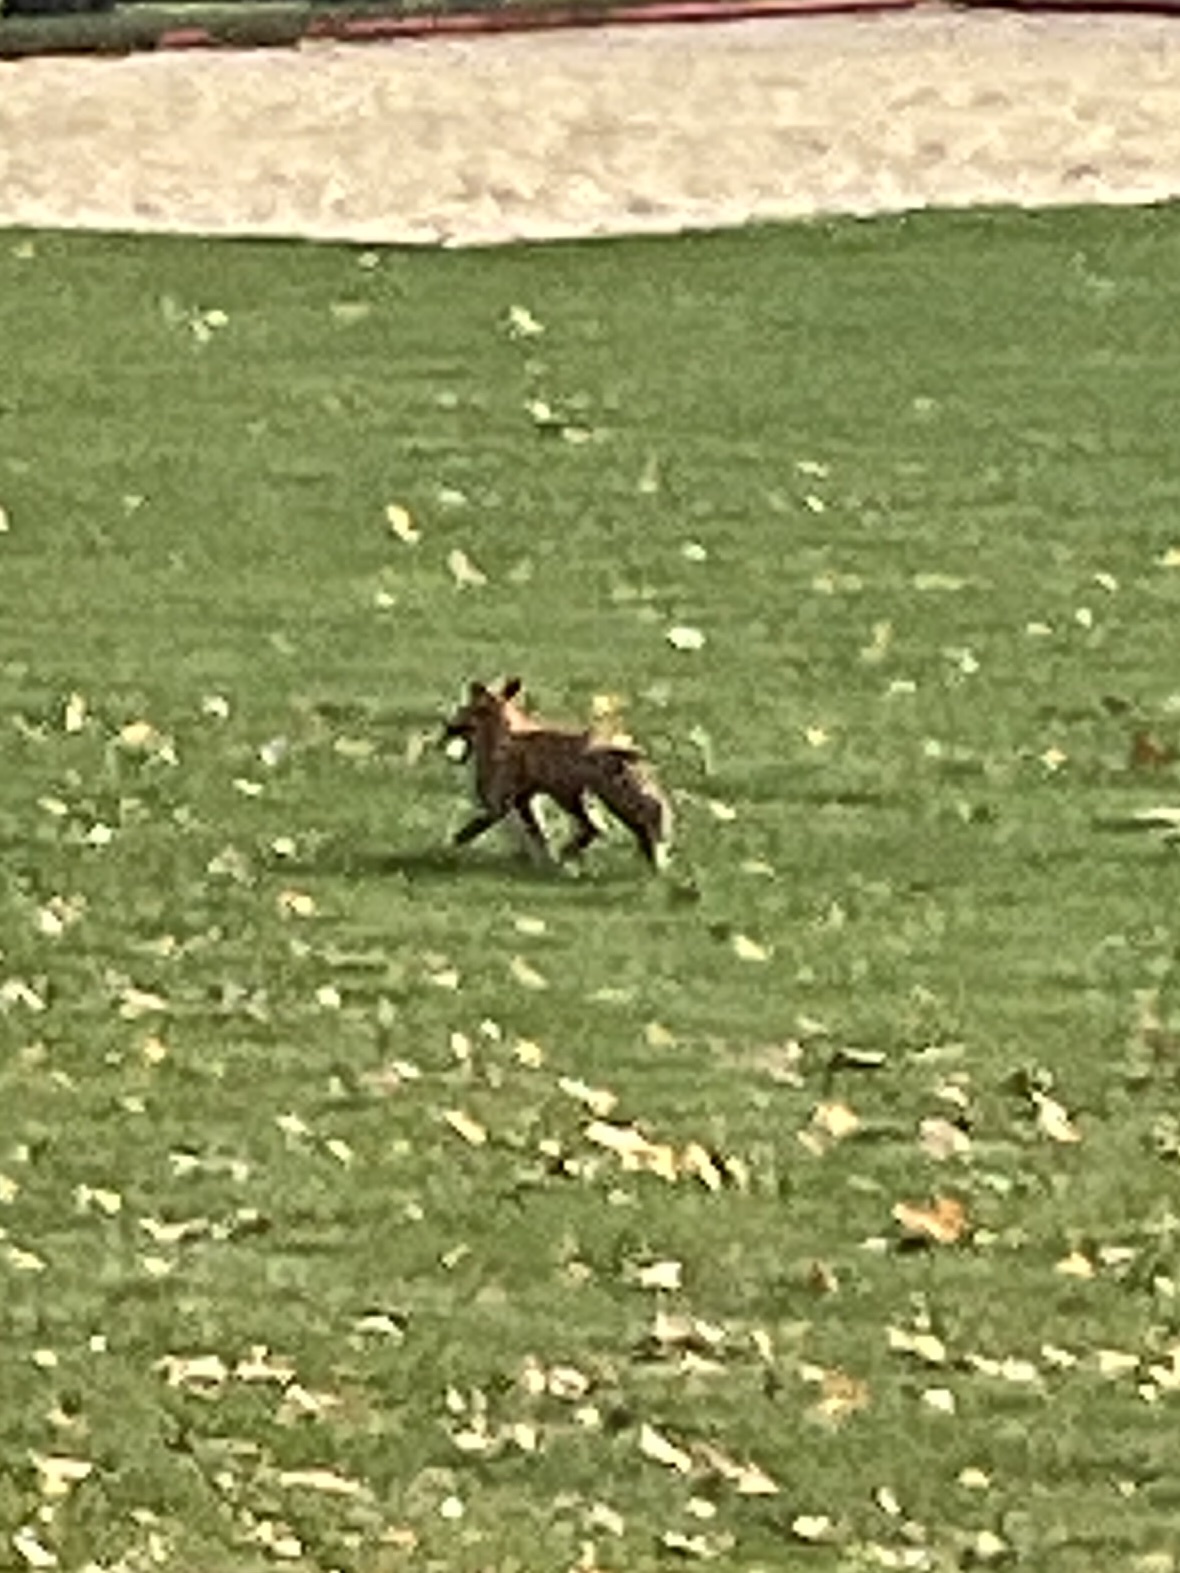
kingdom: Animalia
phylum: Chordata
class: Mammalia
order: Carnivora
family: Canidae
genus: Vulpes
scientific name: Vulpes vulpes
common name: Red fox
